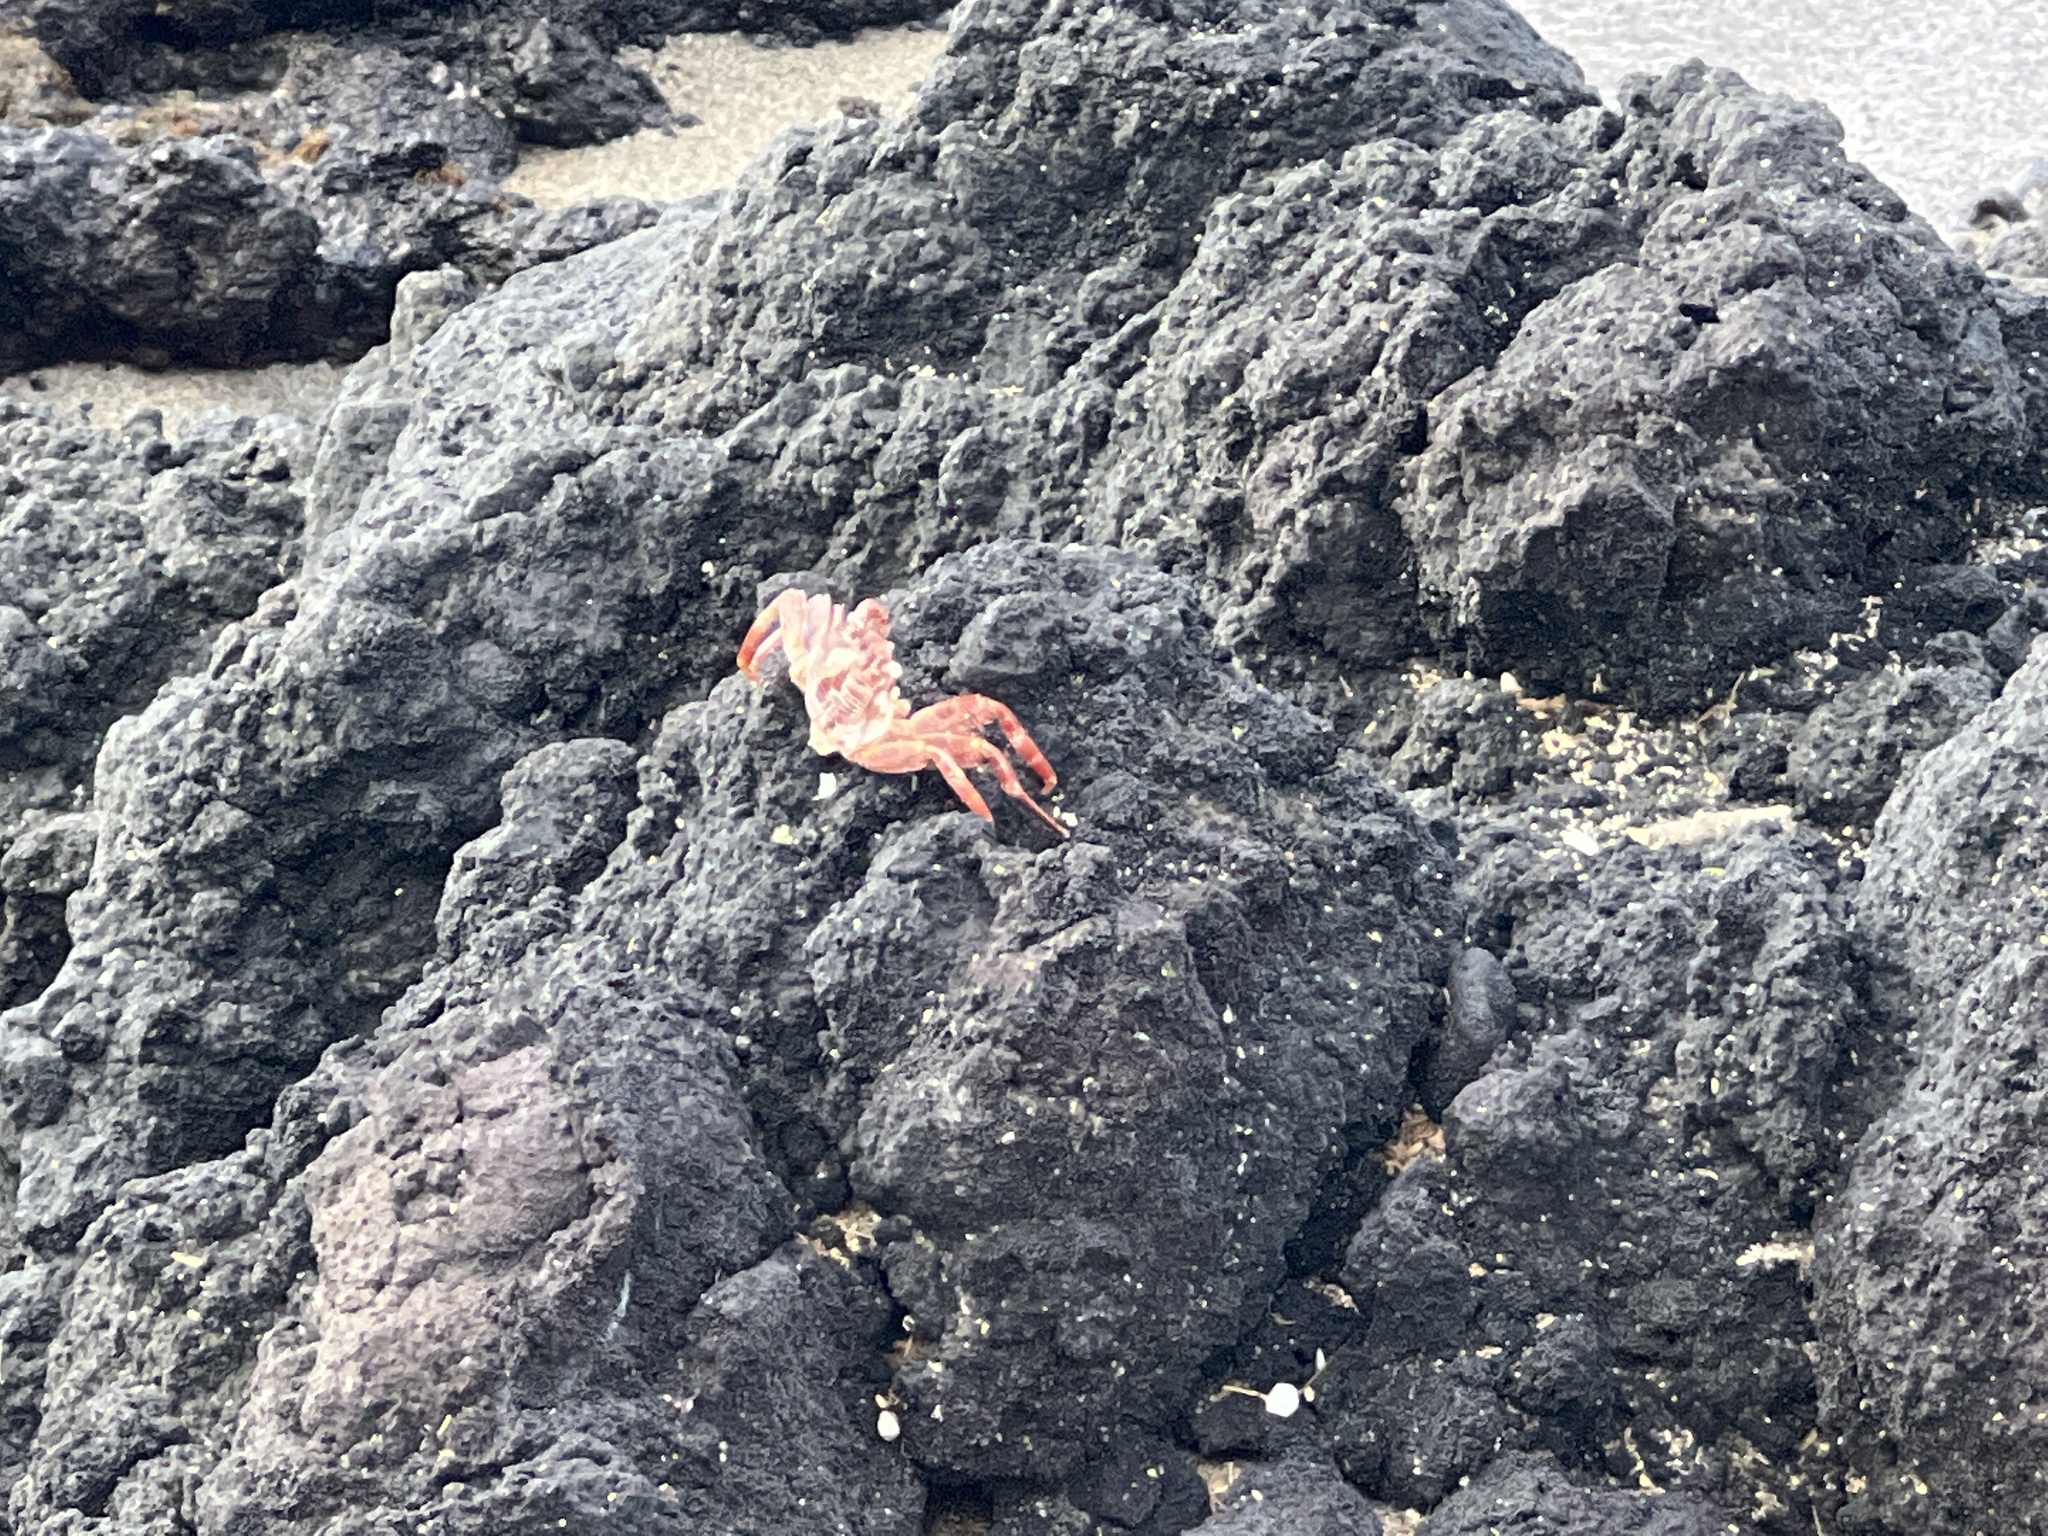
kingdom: Animalia
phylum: Arthropoda
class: Malacostraca
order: Decapoda
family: Grapsidae
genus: Grapsus
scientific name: Grapsus tenuicrustatus
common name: Natal lightfoot crab
